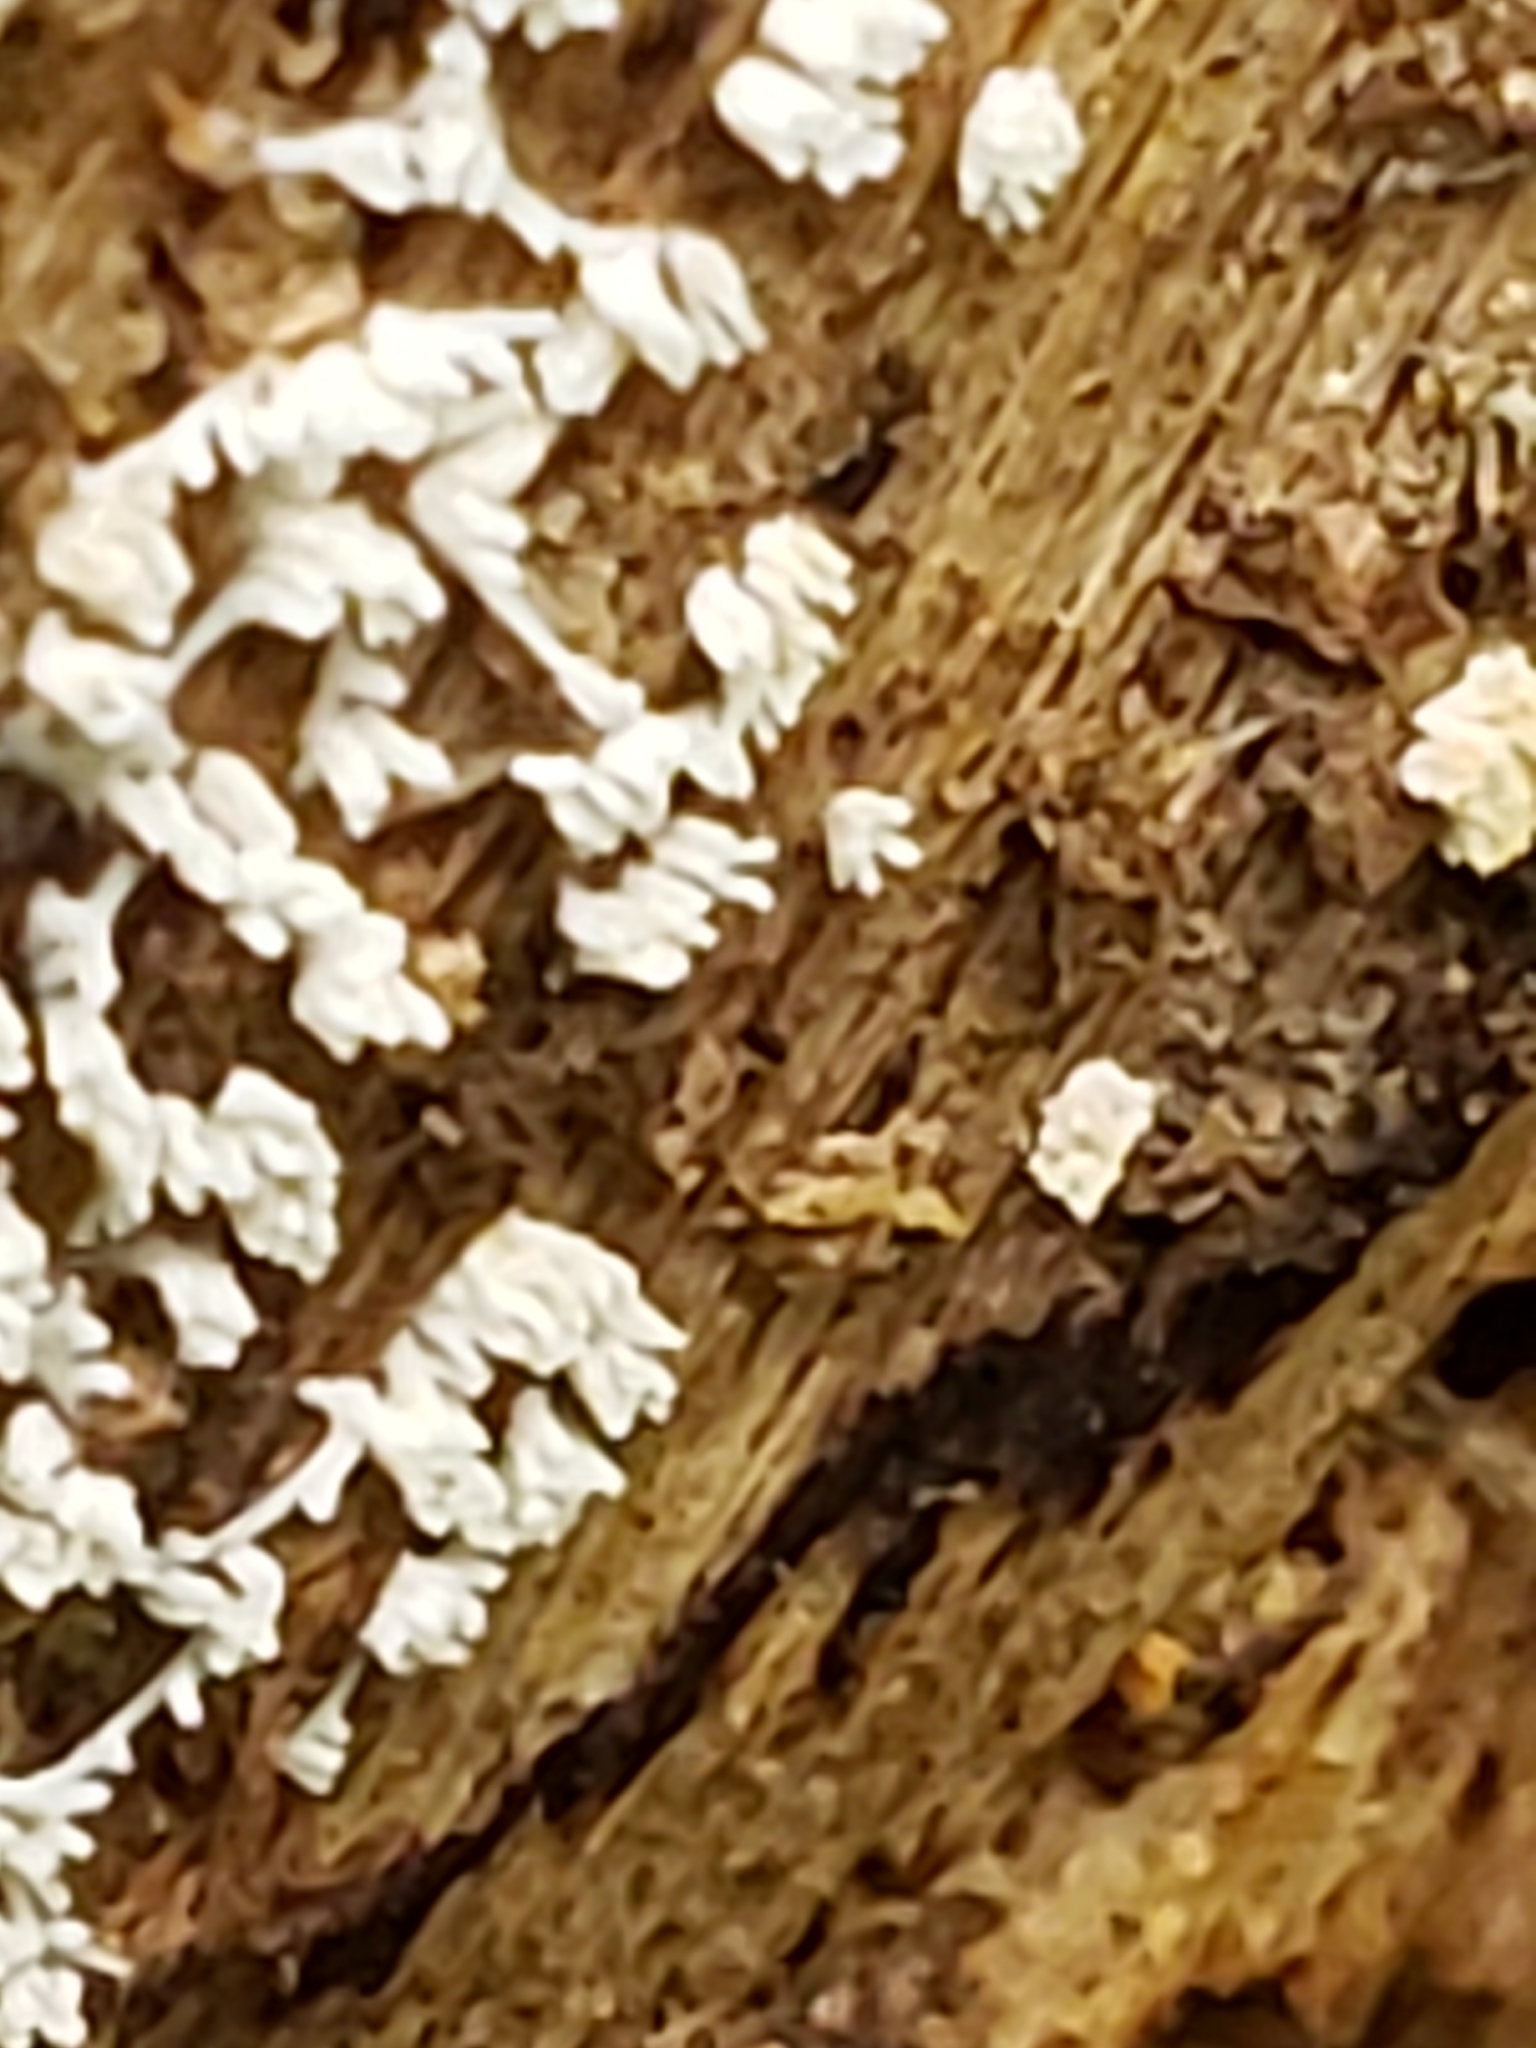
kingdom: Protozoa
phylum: Mycetozoa
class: Protosteliomycetes
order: Ceratiomyxales
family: Ceratiomyxaceae
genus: Ceratiomyxa
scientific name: Ceratiomyxa fruticulosa
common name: Honeycomb coral slime mold
